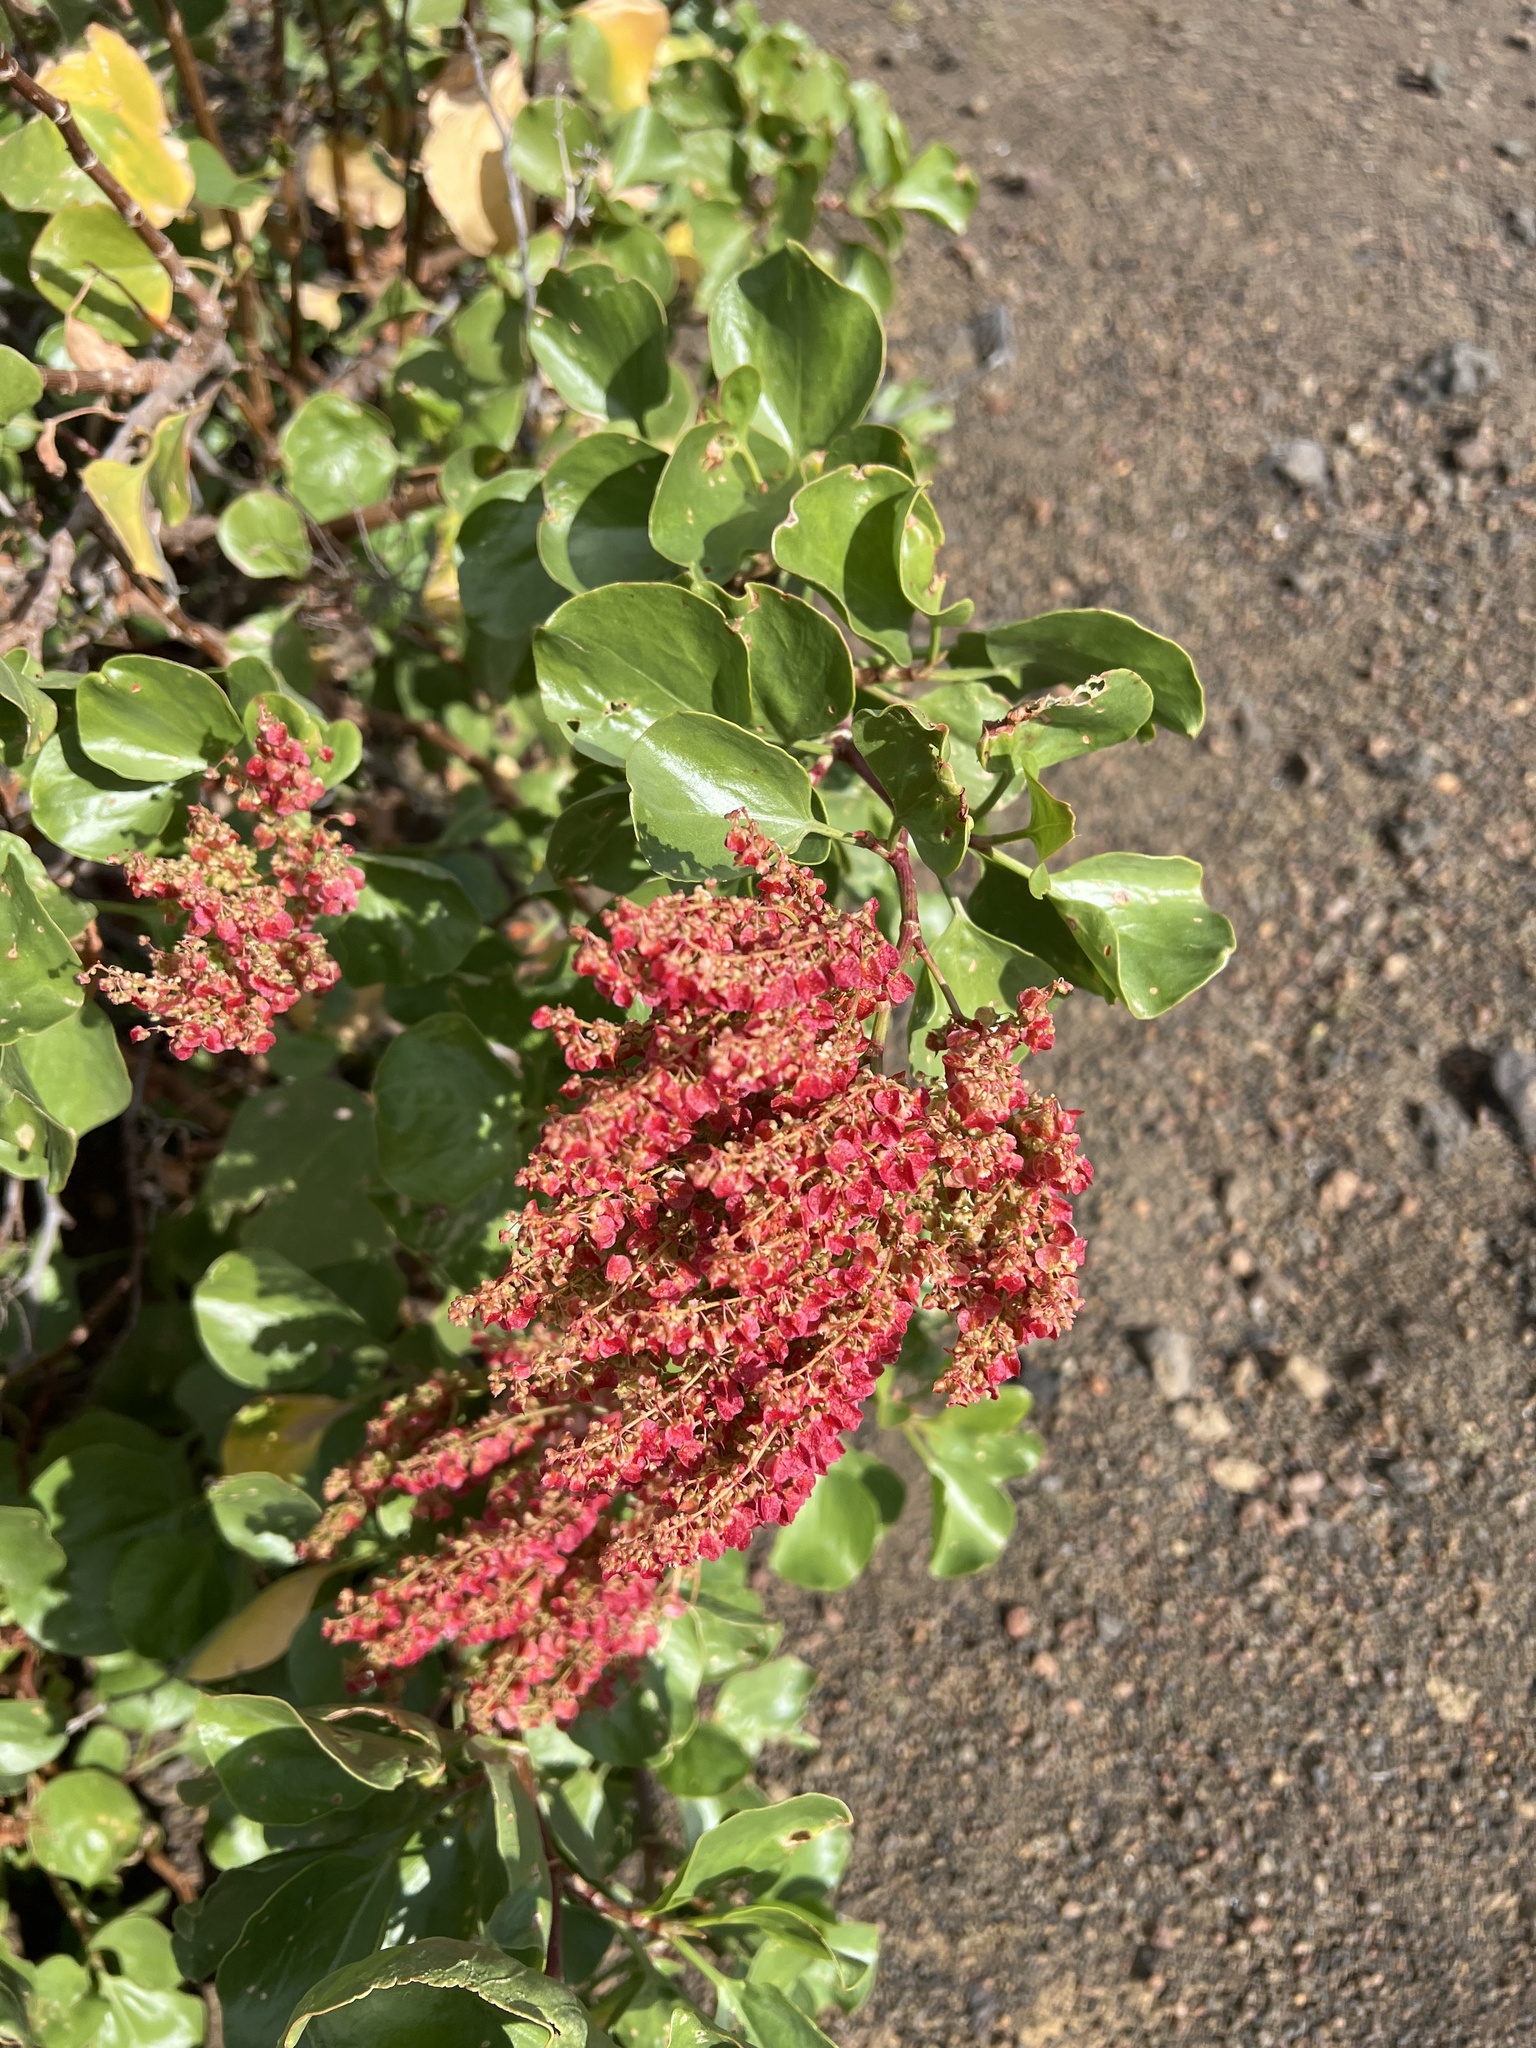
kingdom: Plantae
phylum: Tracheophyta
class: Magnoliopsida
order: Caryophyllales
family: Polygonaceae
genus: Rumex
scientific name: Rumex lunaria
